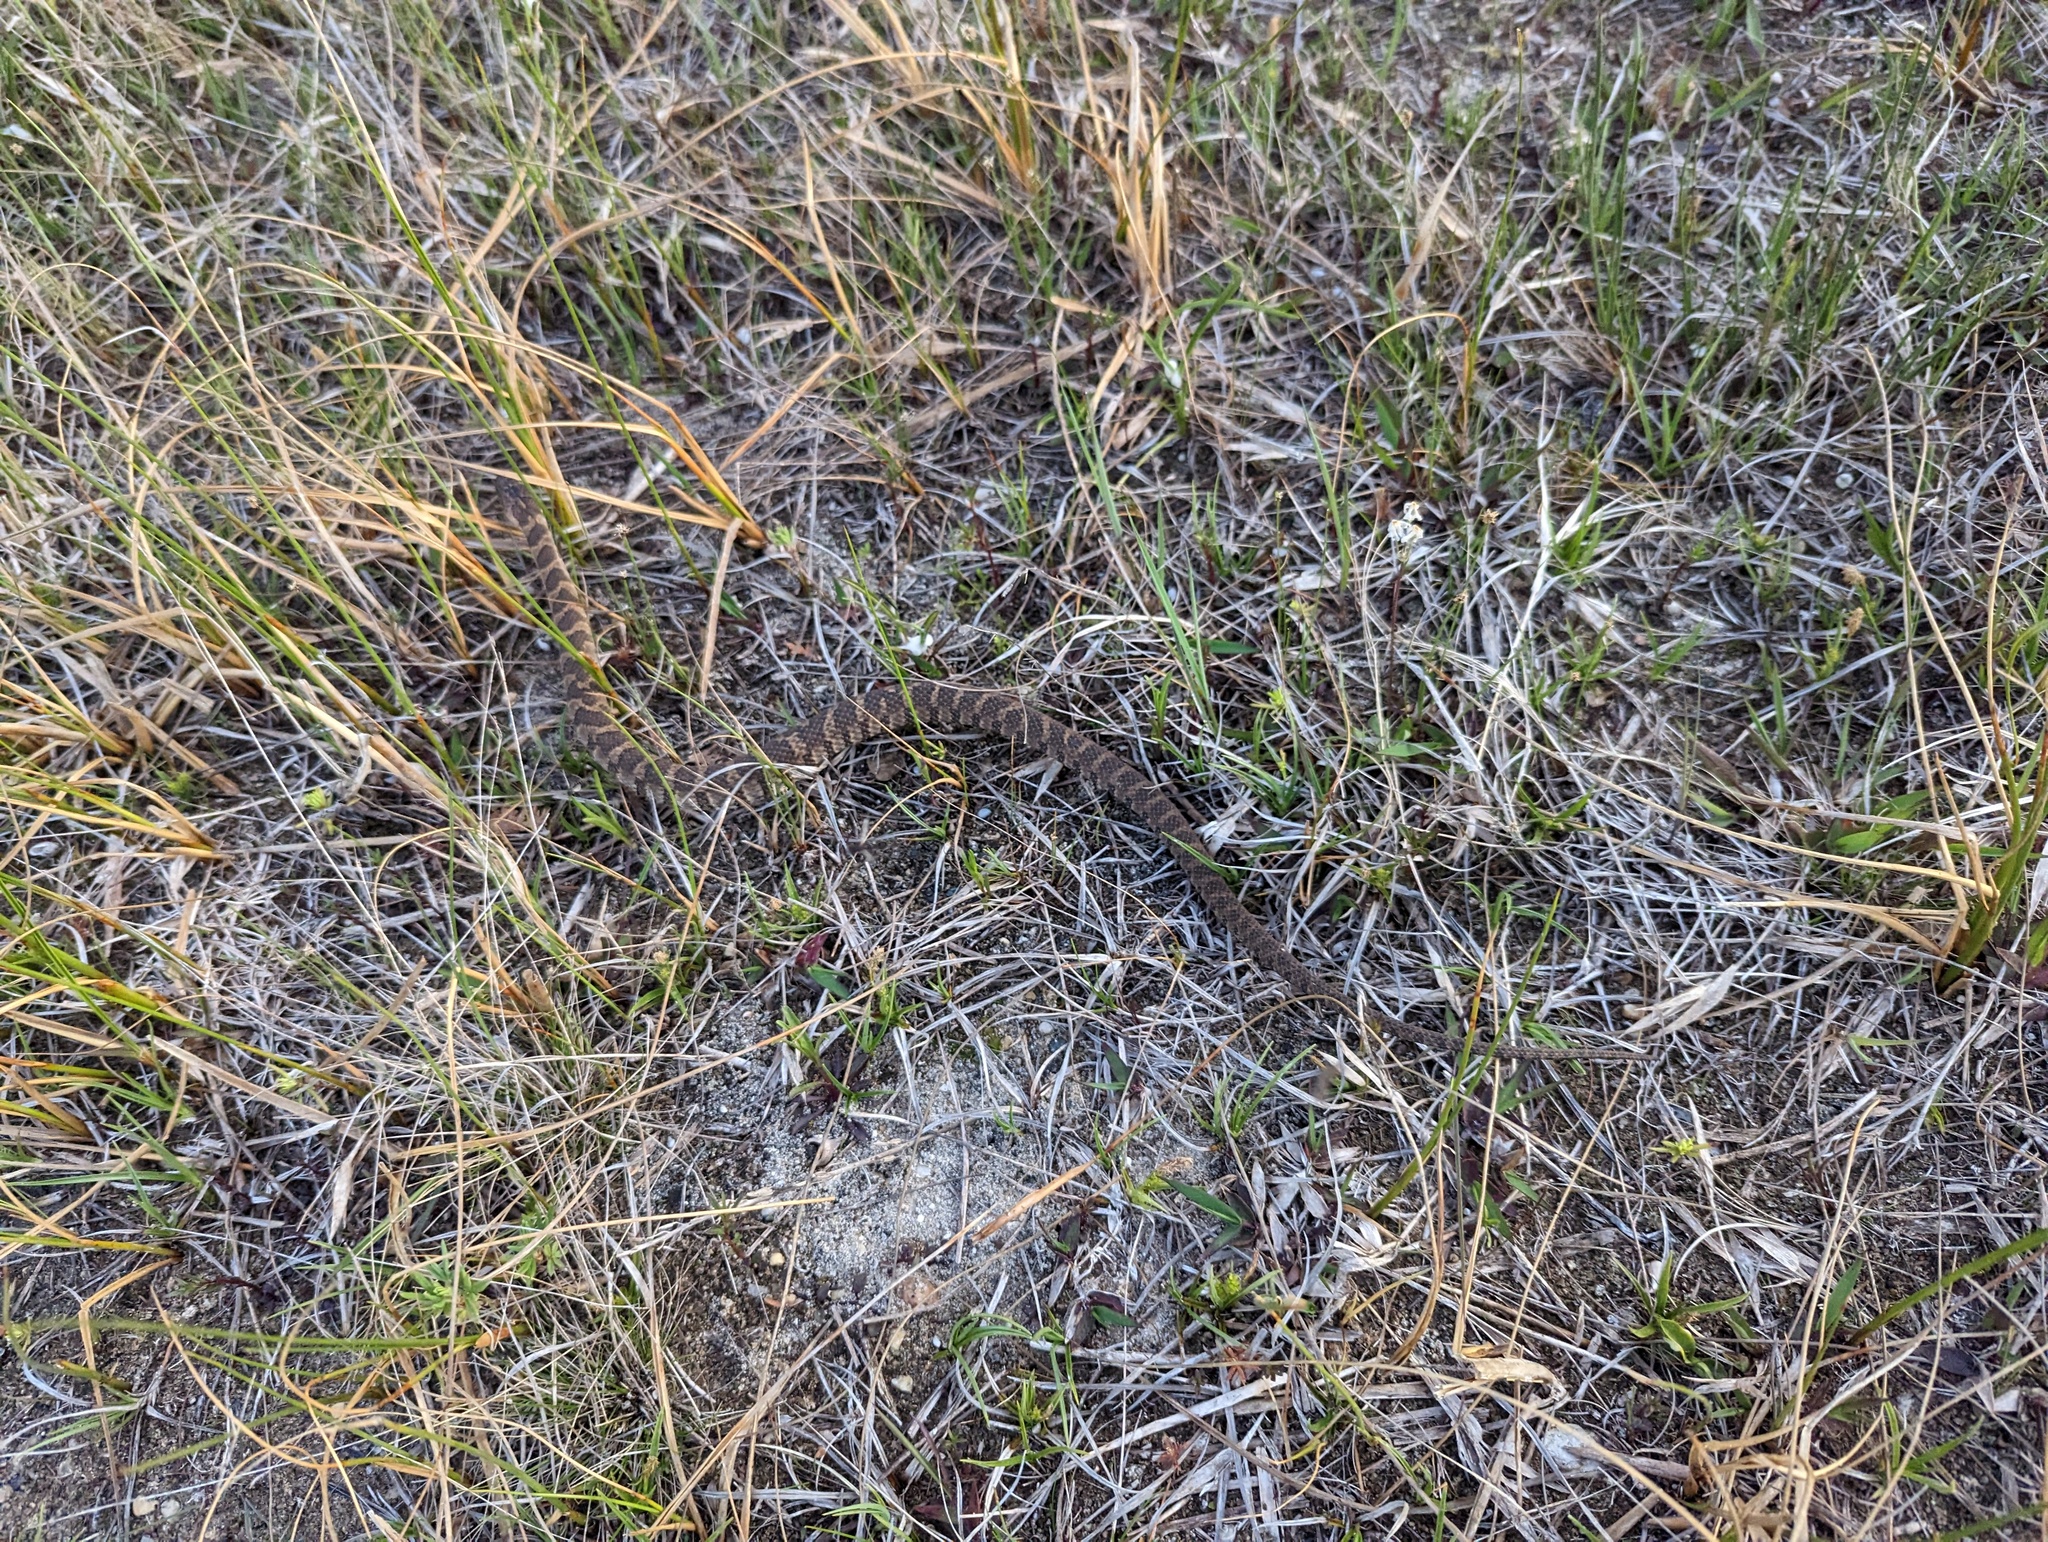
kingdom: Animalia
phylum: Chordata
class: Squamata
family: Colubridae
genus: Nerodia
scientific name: Nerodia sipedon
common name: Northern water snake
